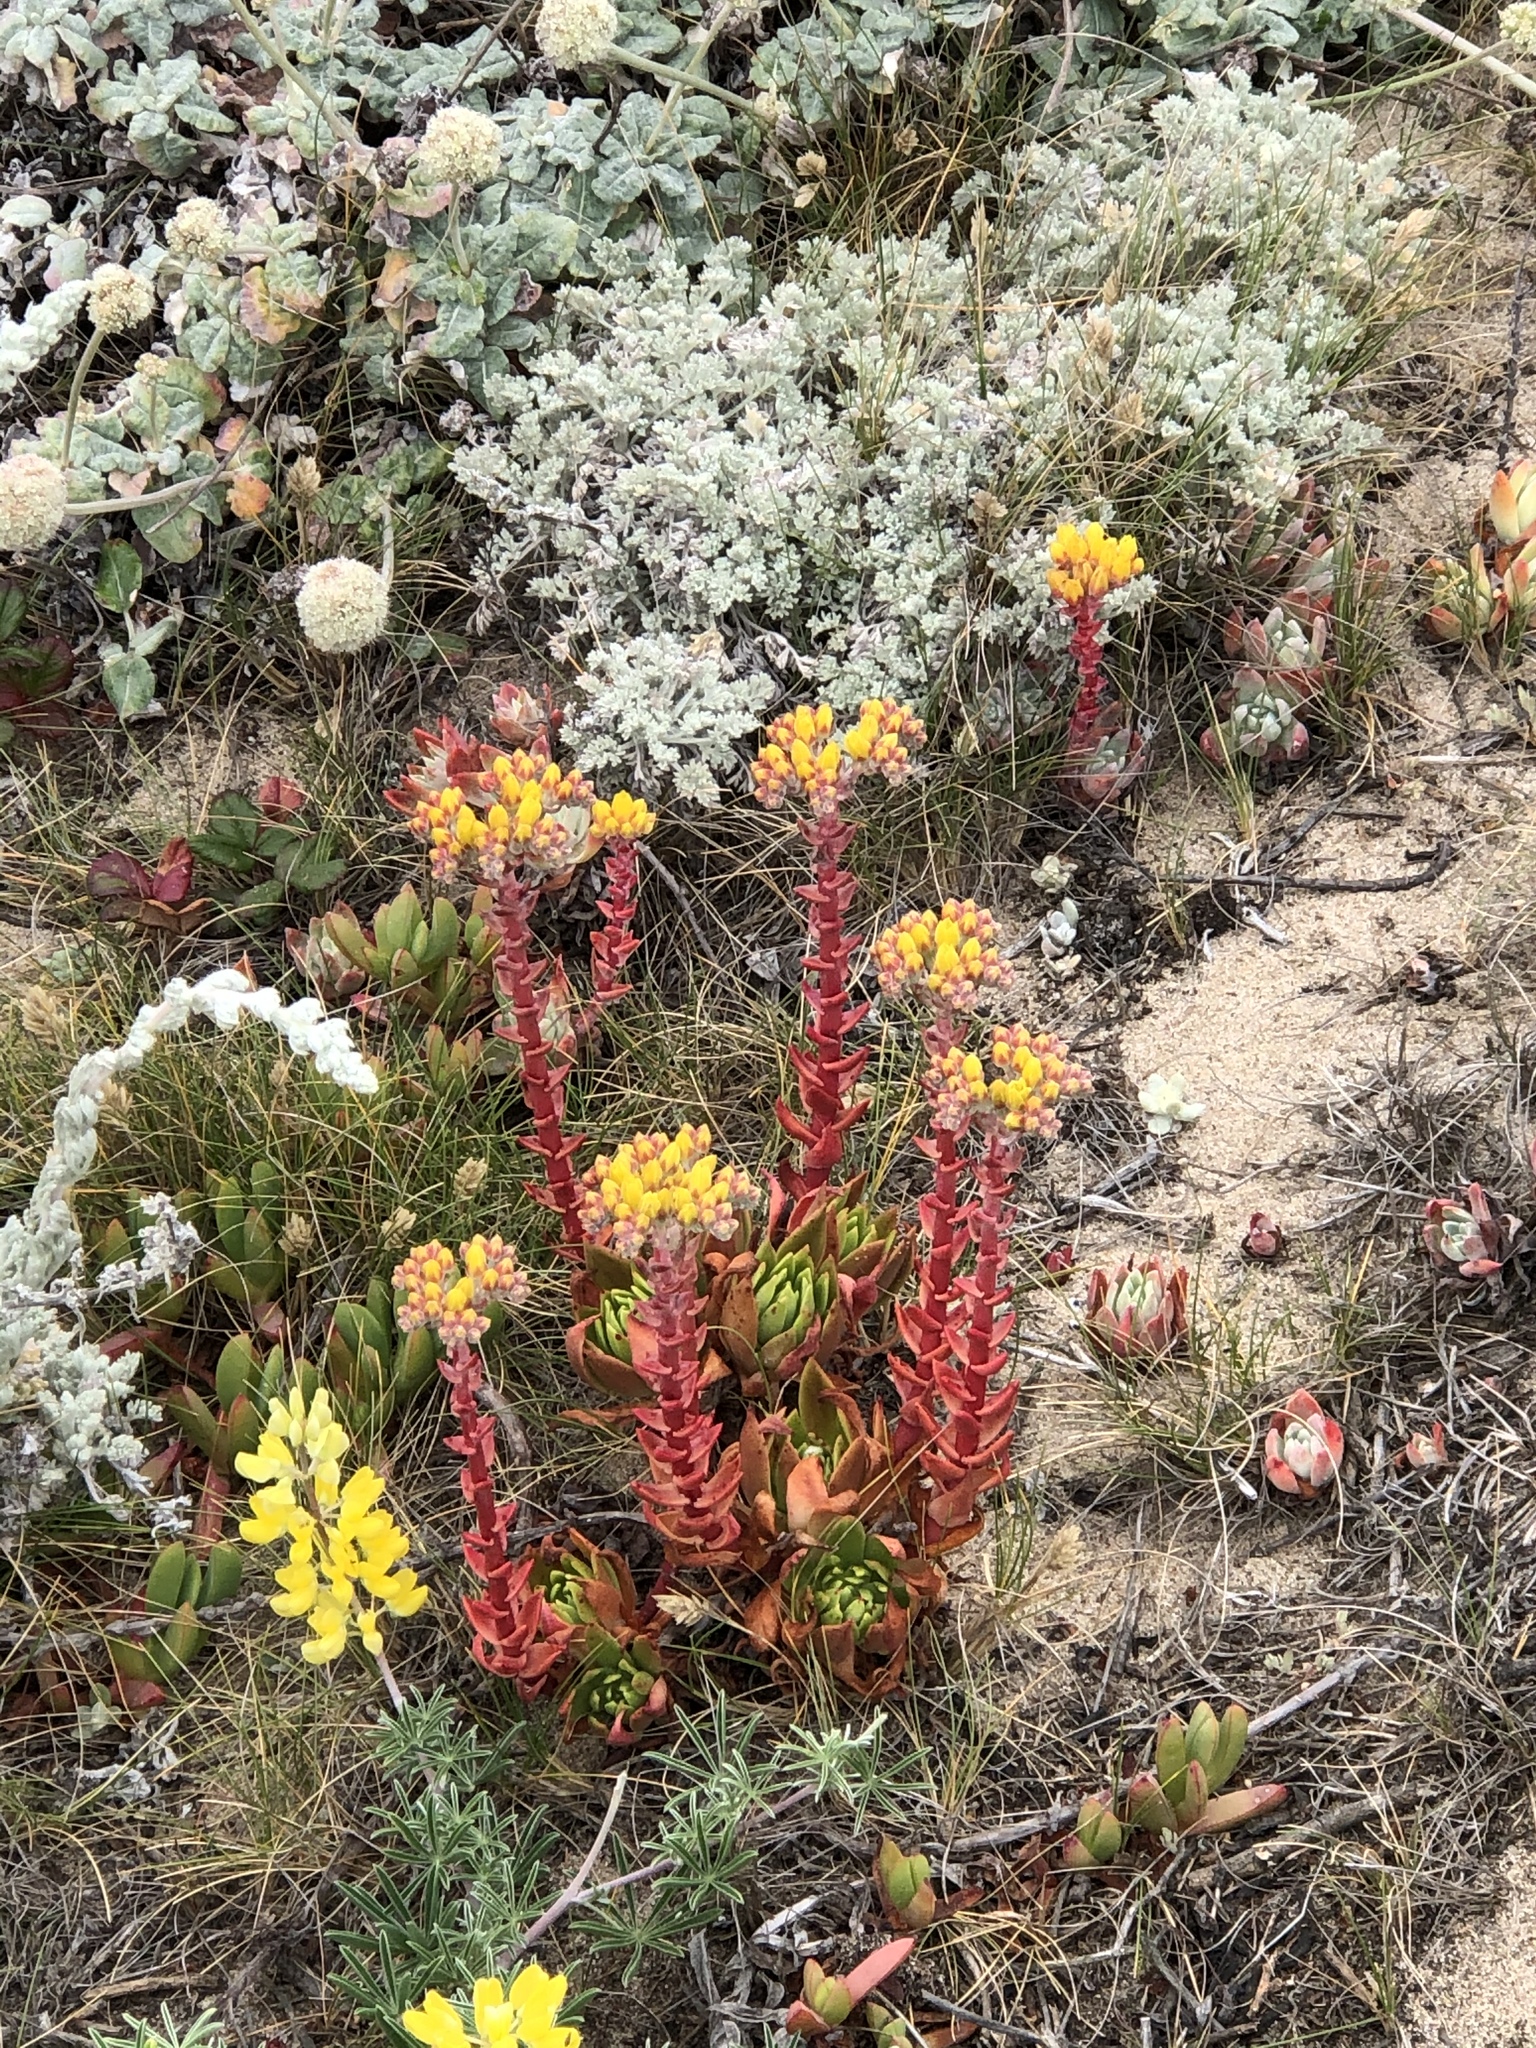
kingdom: Plantae
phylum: Tracheophyta
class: Magnoliopsida
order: Saxifragales
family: Crassulaceae
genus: Dudleya
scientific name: Dudleya caespitosa
